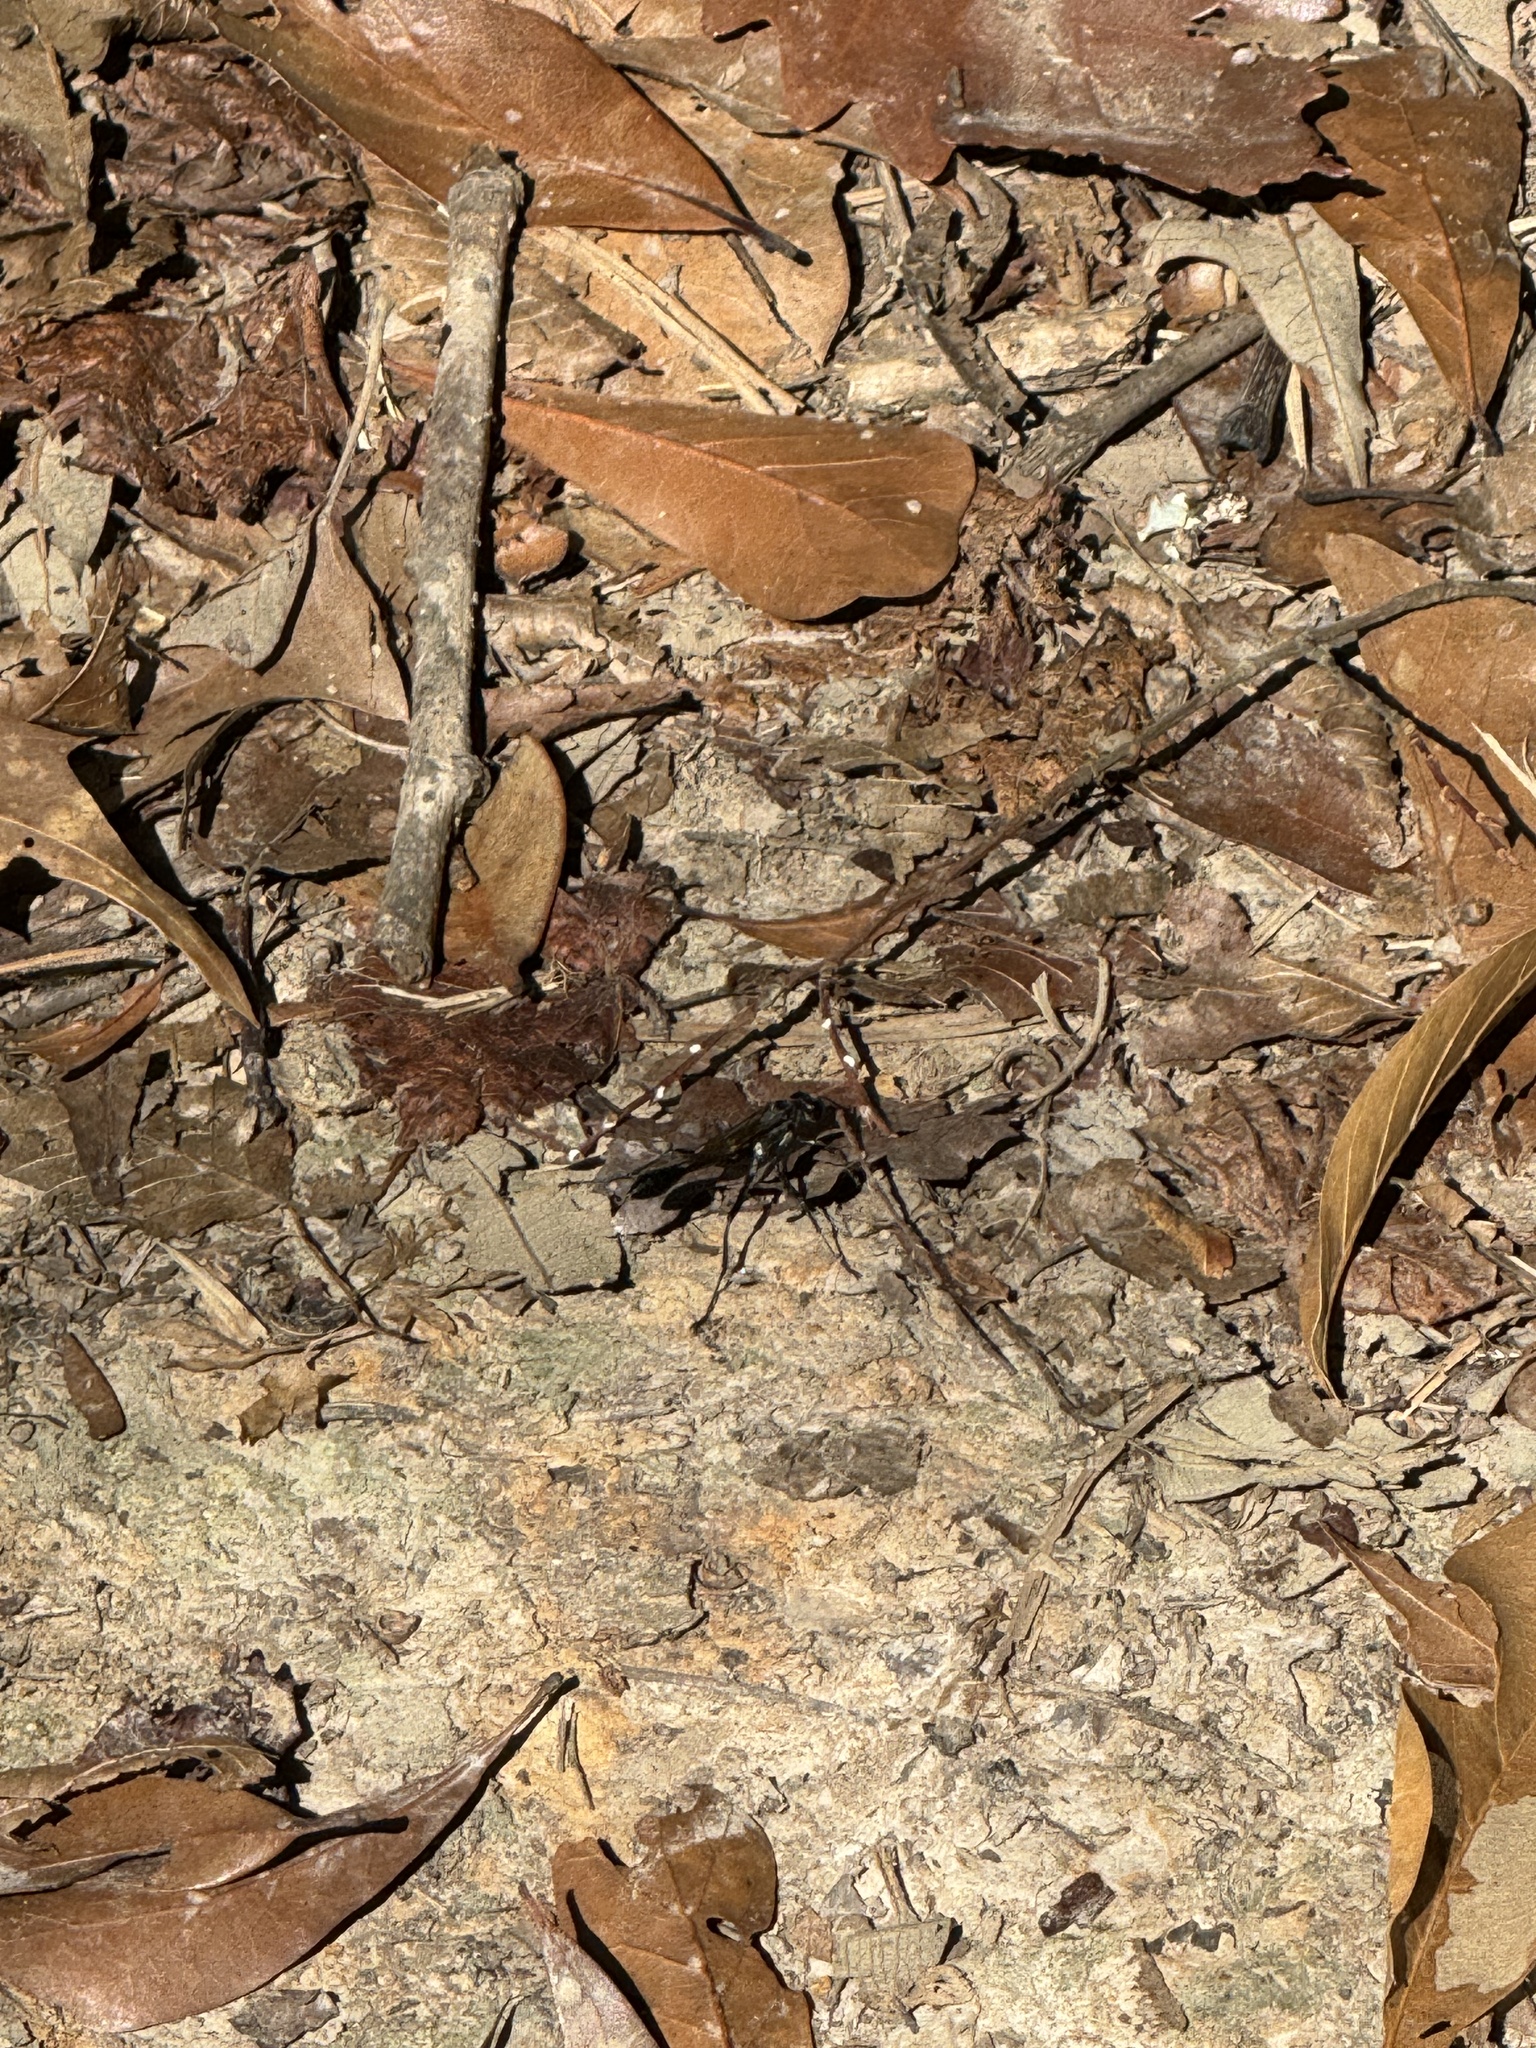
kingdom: Animalia
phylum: Arthropoda
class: Insecta
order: Hymenoptera
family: Sphecidae
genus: Eremnophila
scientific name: Eremnophila aureonotata
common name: Gold-marked thread-waisted wasp
